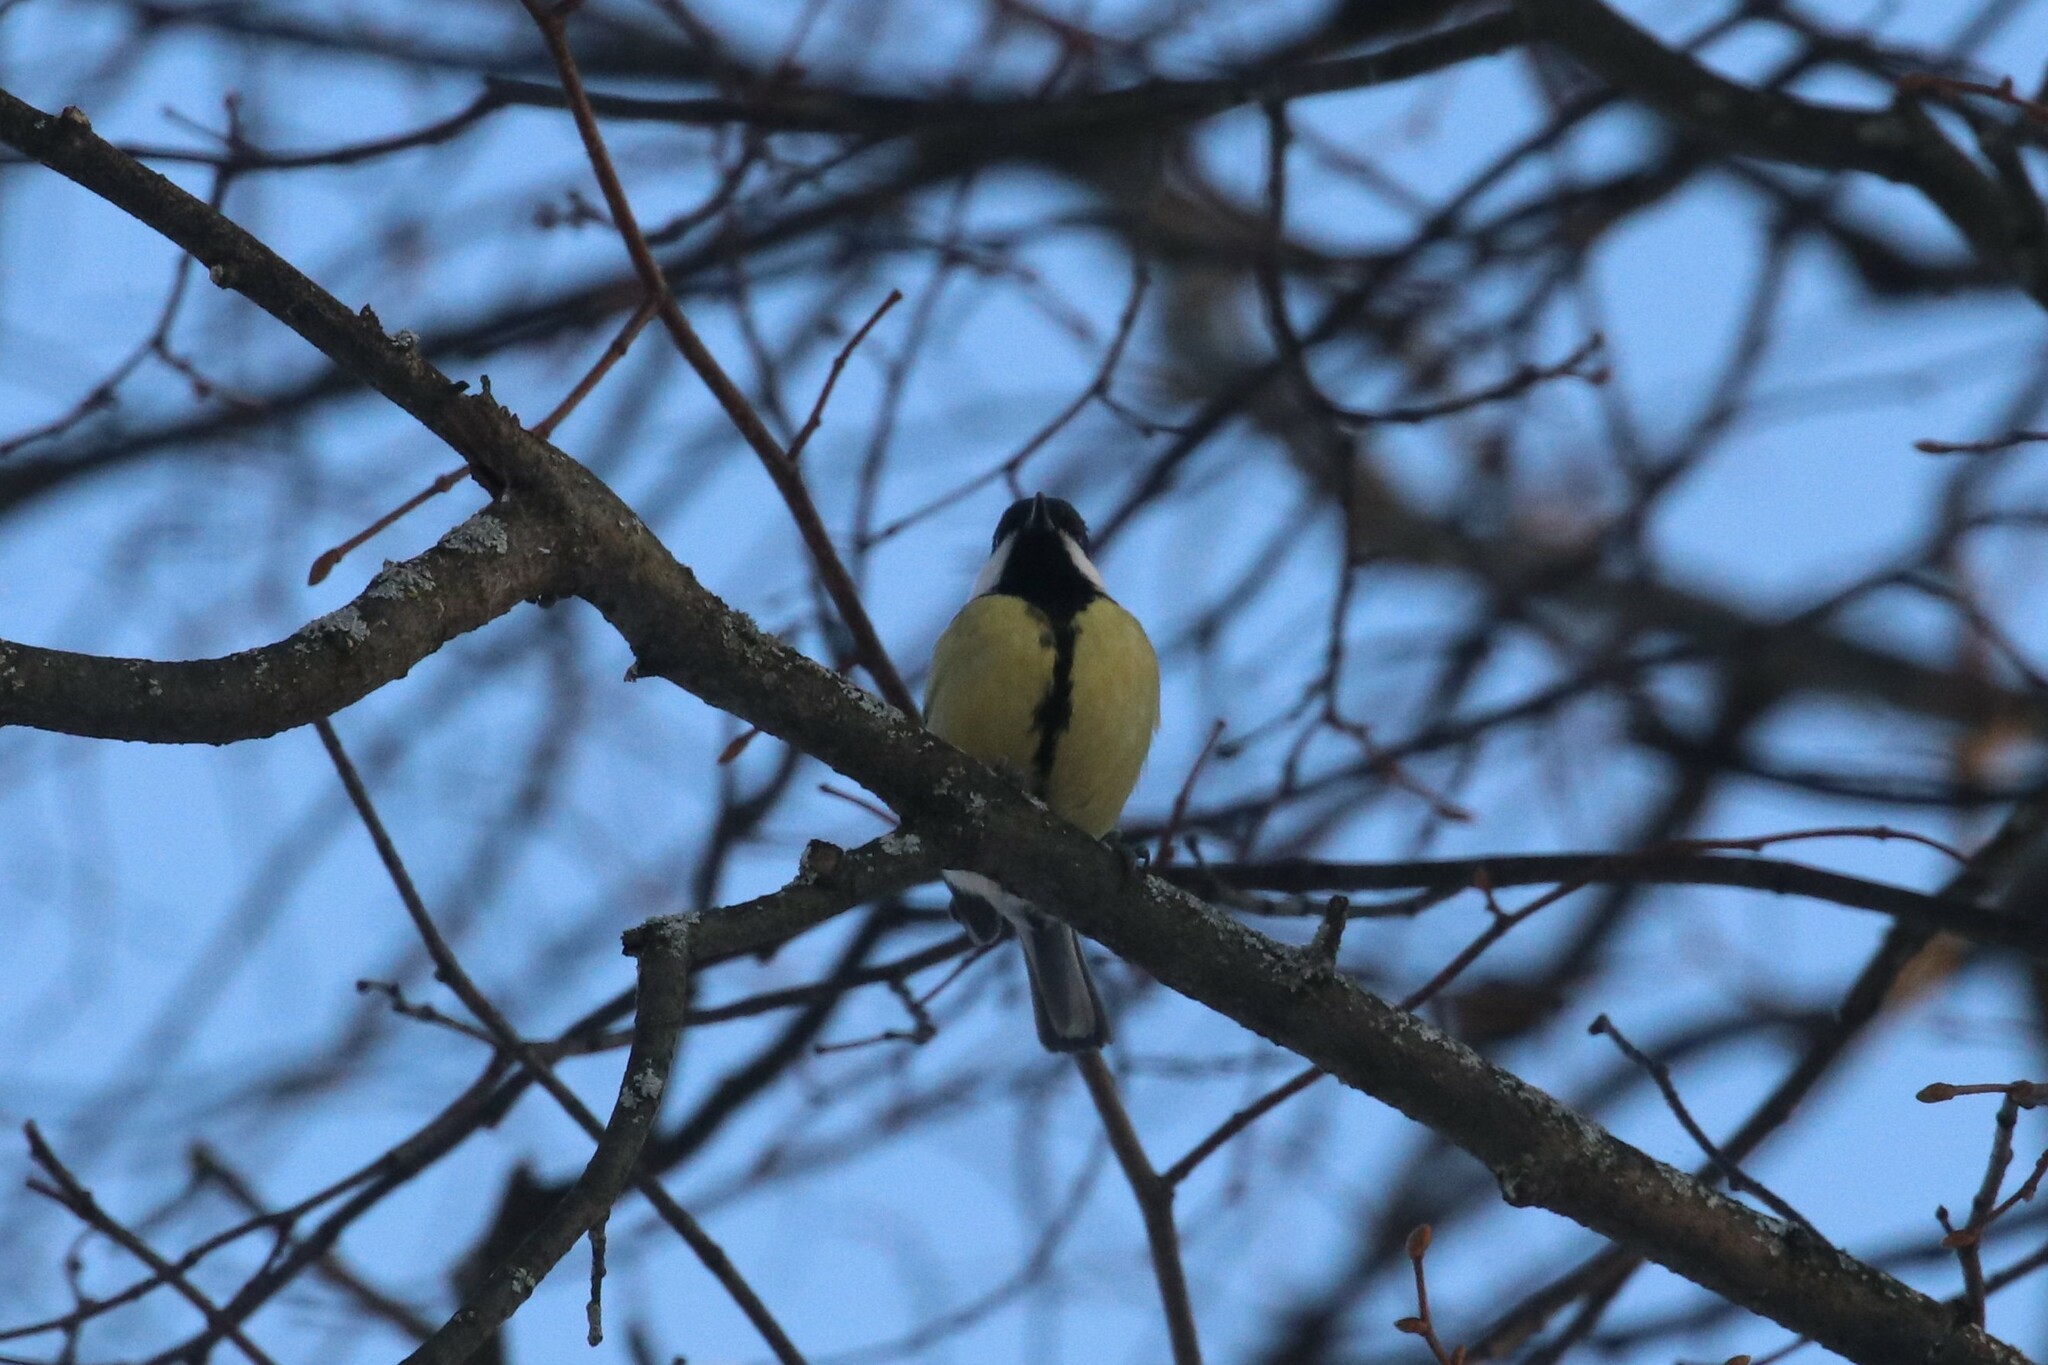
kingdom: Animalia
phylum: Chordata
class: Aves
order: Passeriformes
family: Paridae
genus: Parus
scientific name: Parus major
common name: Great tit
